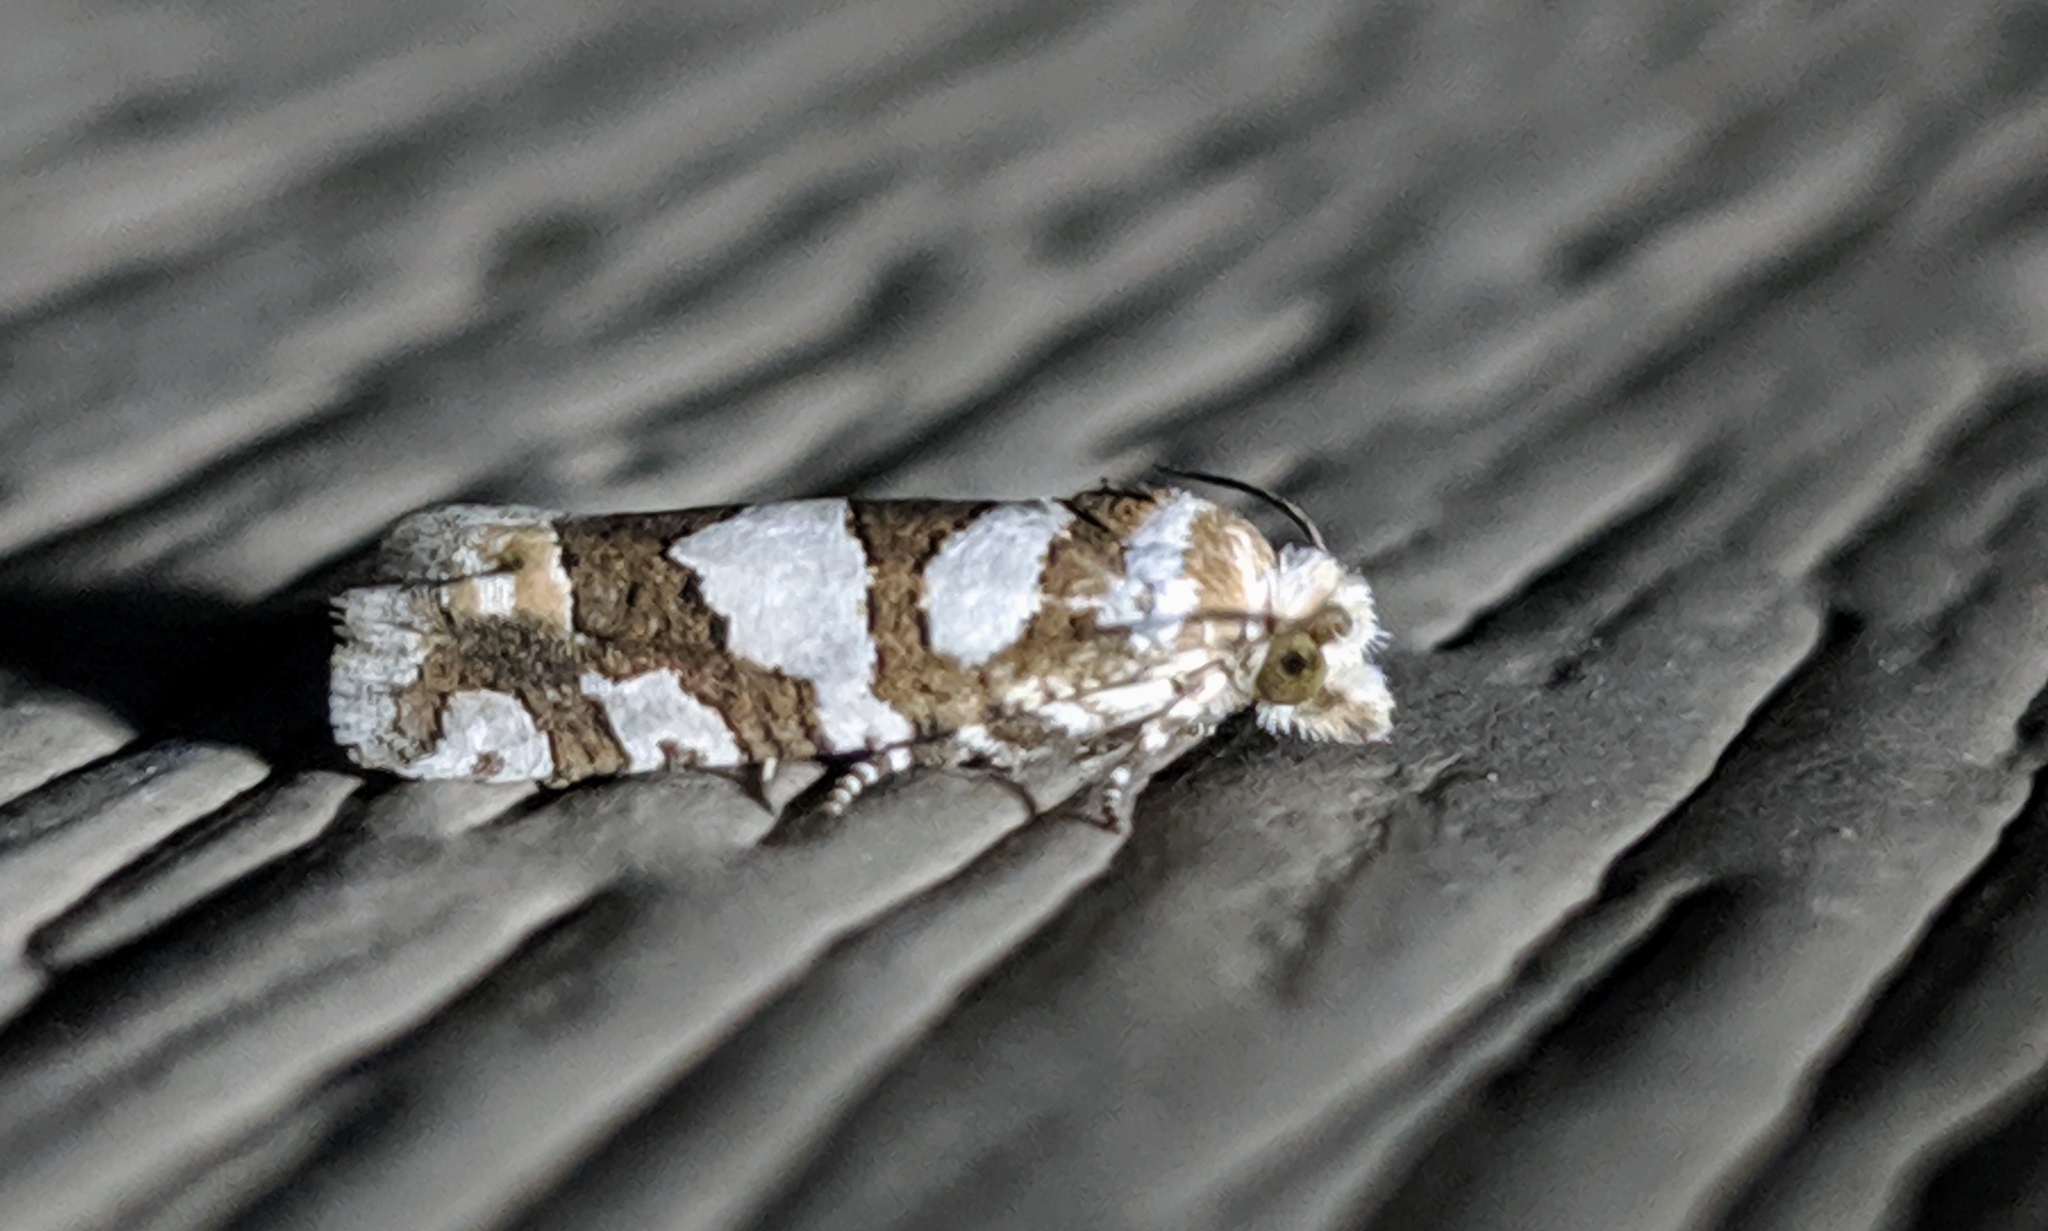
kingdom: Animalia
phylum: Arthropoda
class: Insecta
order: Lepidoptera
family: Tortricidae
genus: Pelochrista
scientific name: Pelochrista robinsonana
